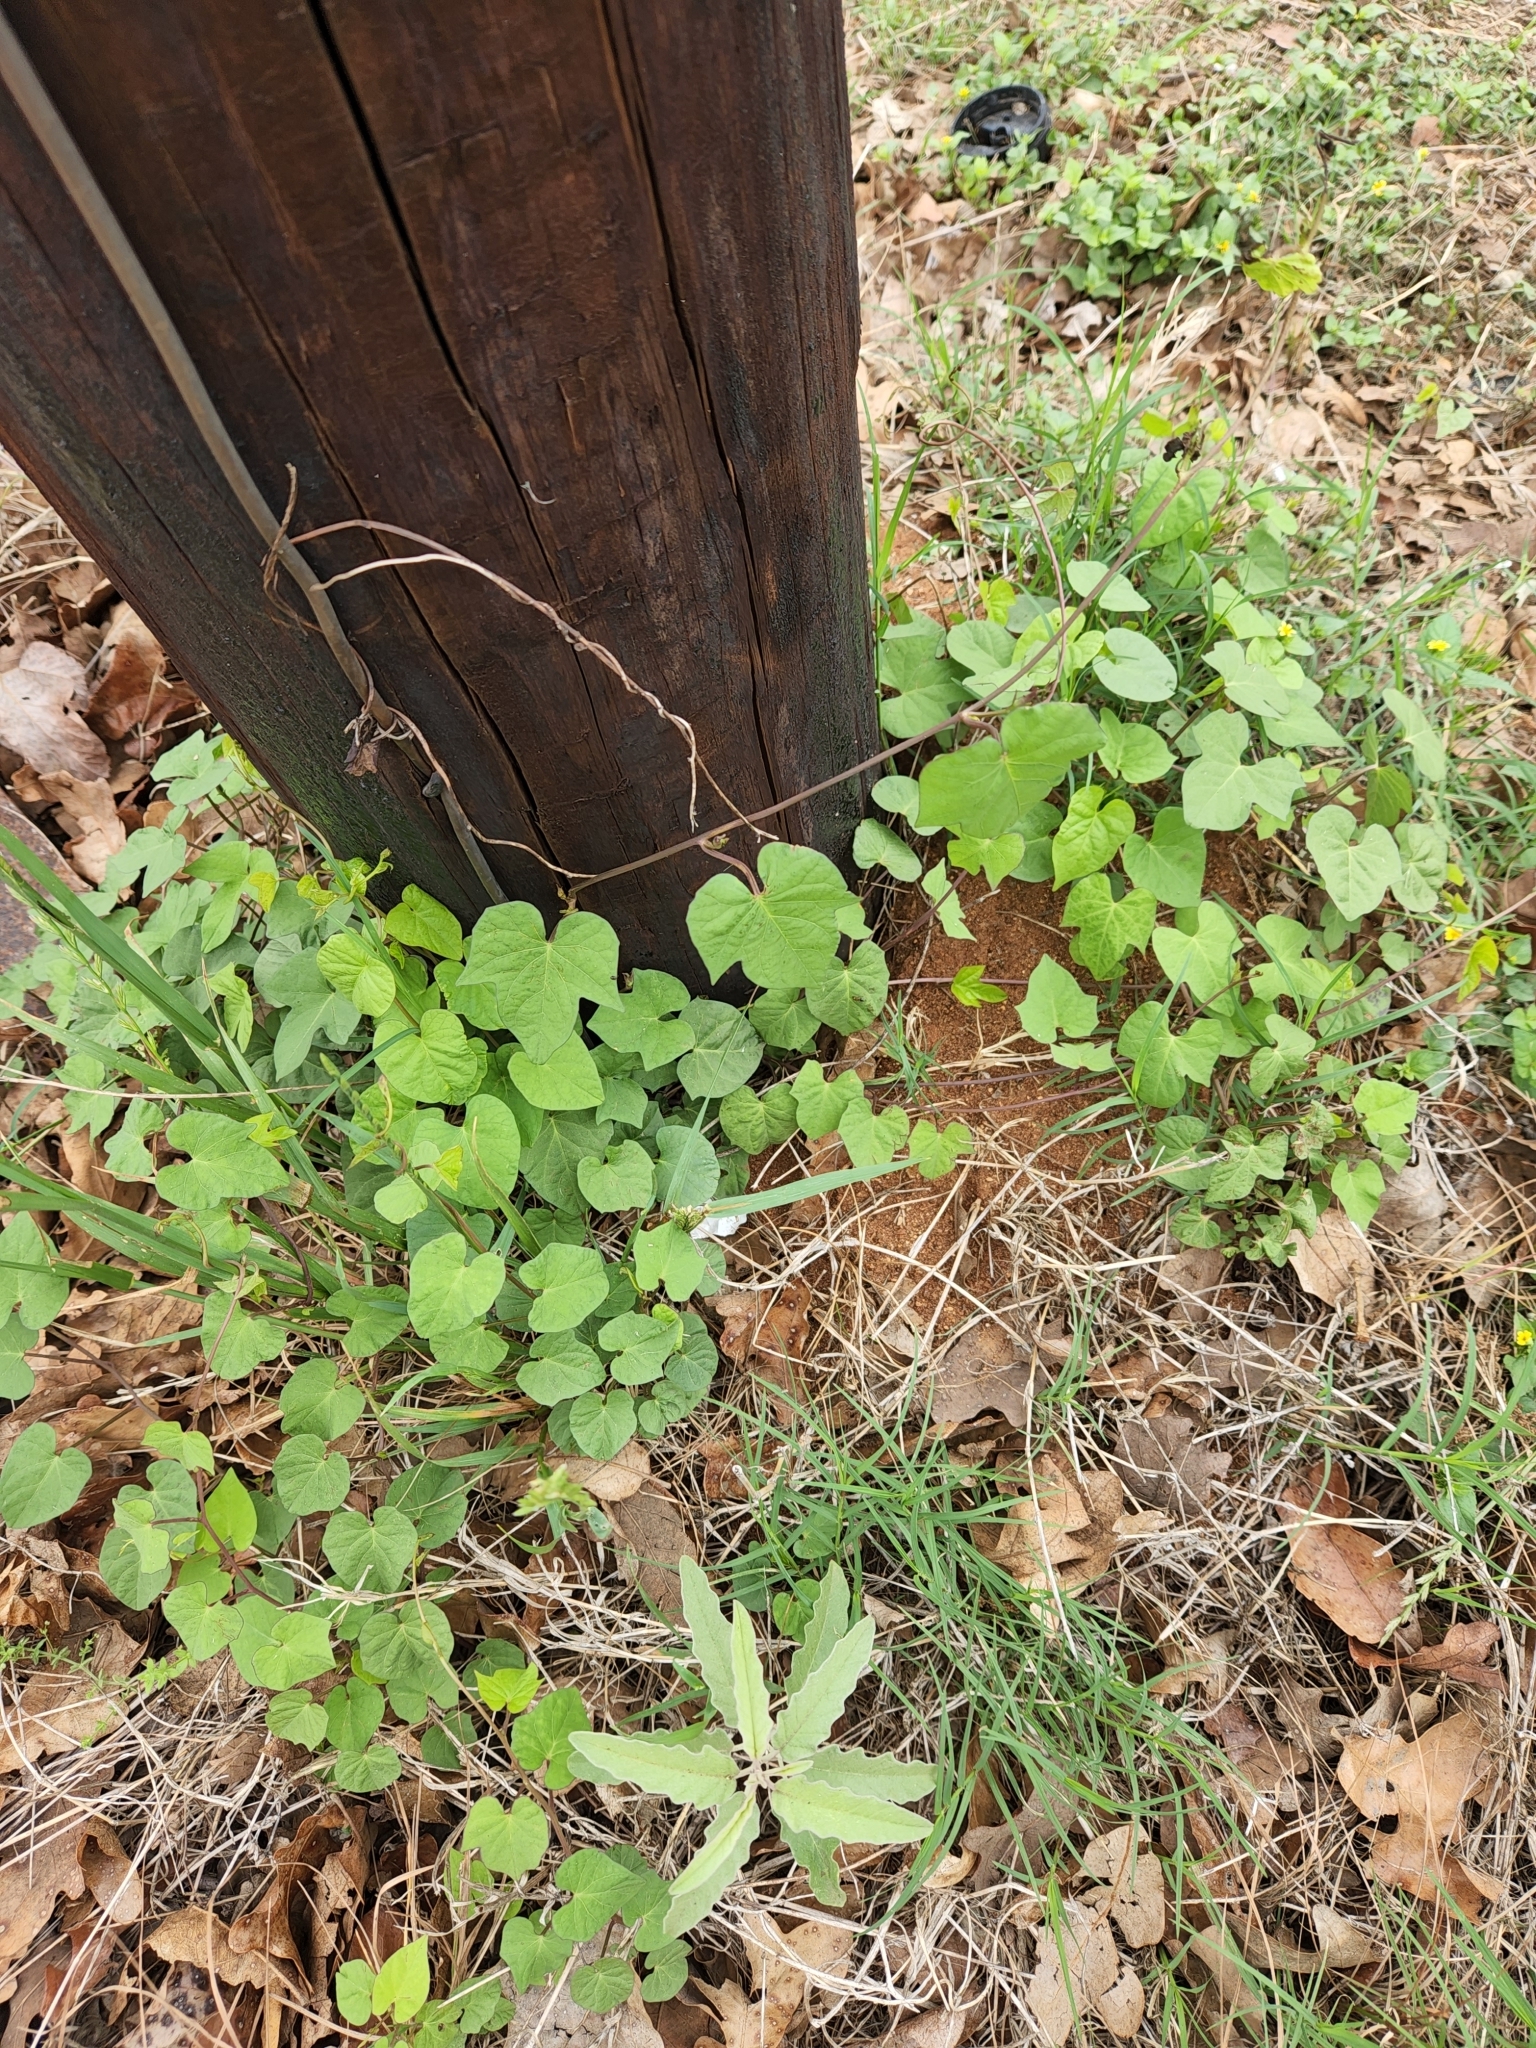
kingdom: Plantae
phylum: Tracheophyta
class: Magnoliopsida
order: Solanales
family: Convolvulaceae
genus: Ipomoea
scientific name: Ipomoea cordatotriloba
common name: Cotton morning glory
